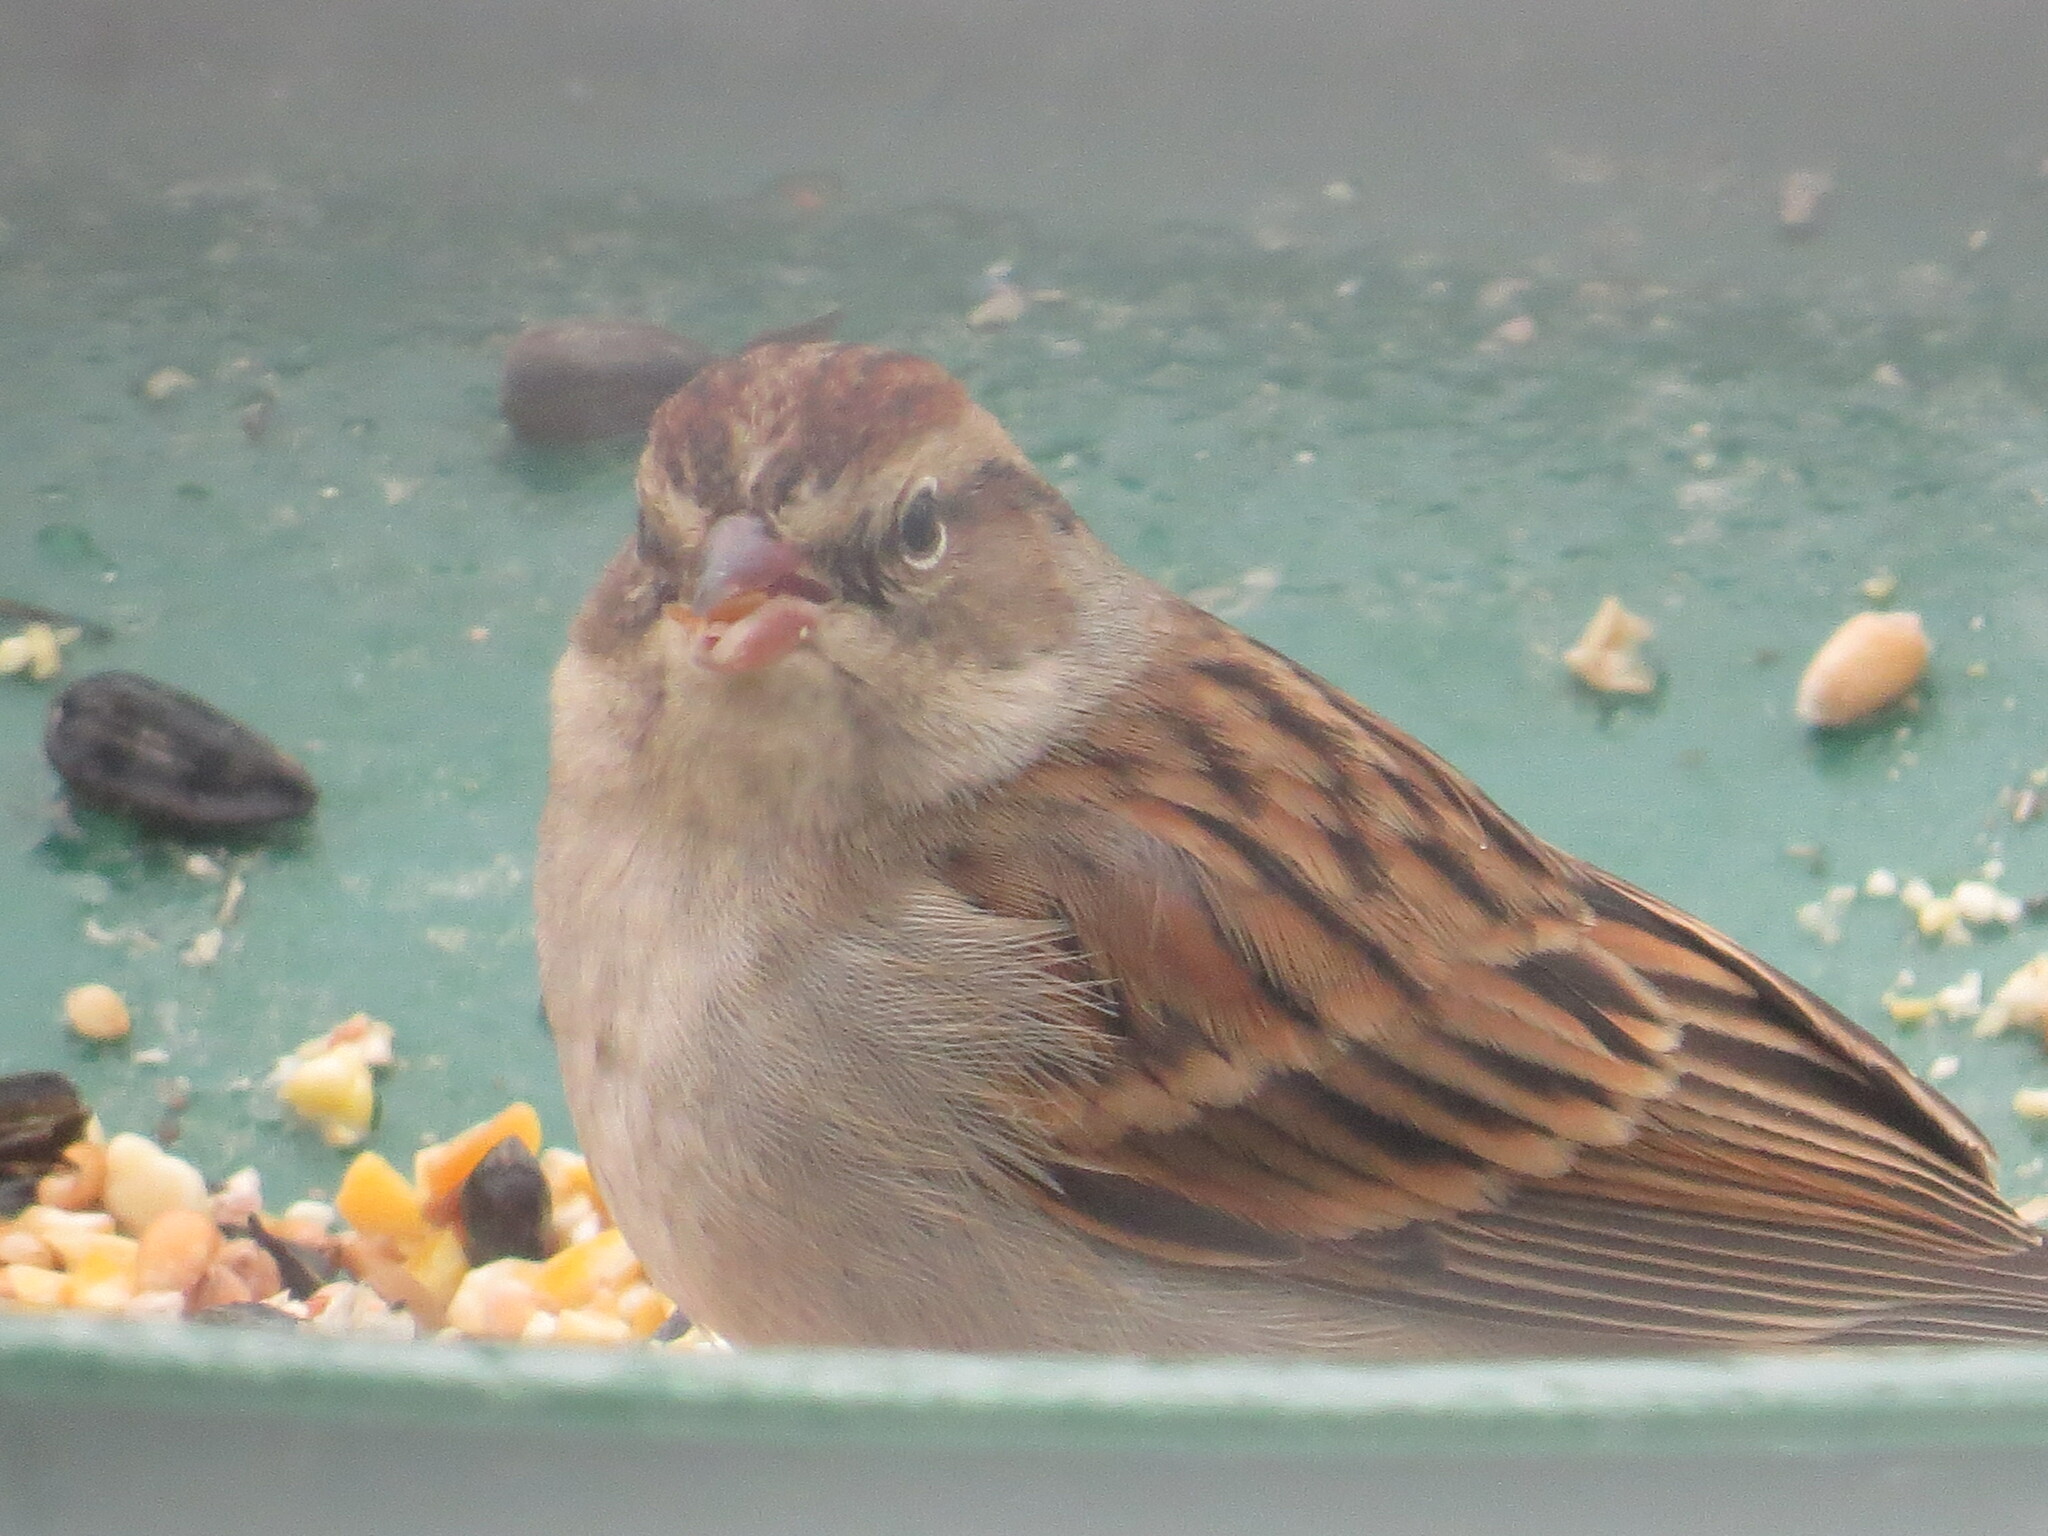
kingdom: Animalia
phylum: Chordata
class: Aves
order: Passeriformes
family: Passerellidae
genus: Spizelloides
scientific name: Spizelloides arborea
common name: American tree sparrow
